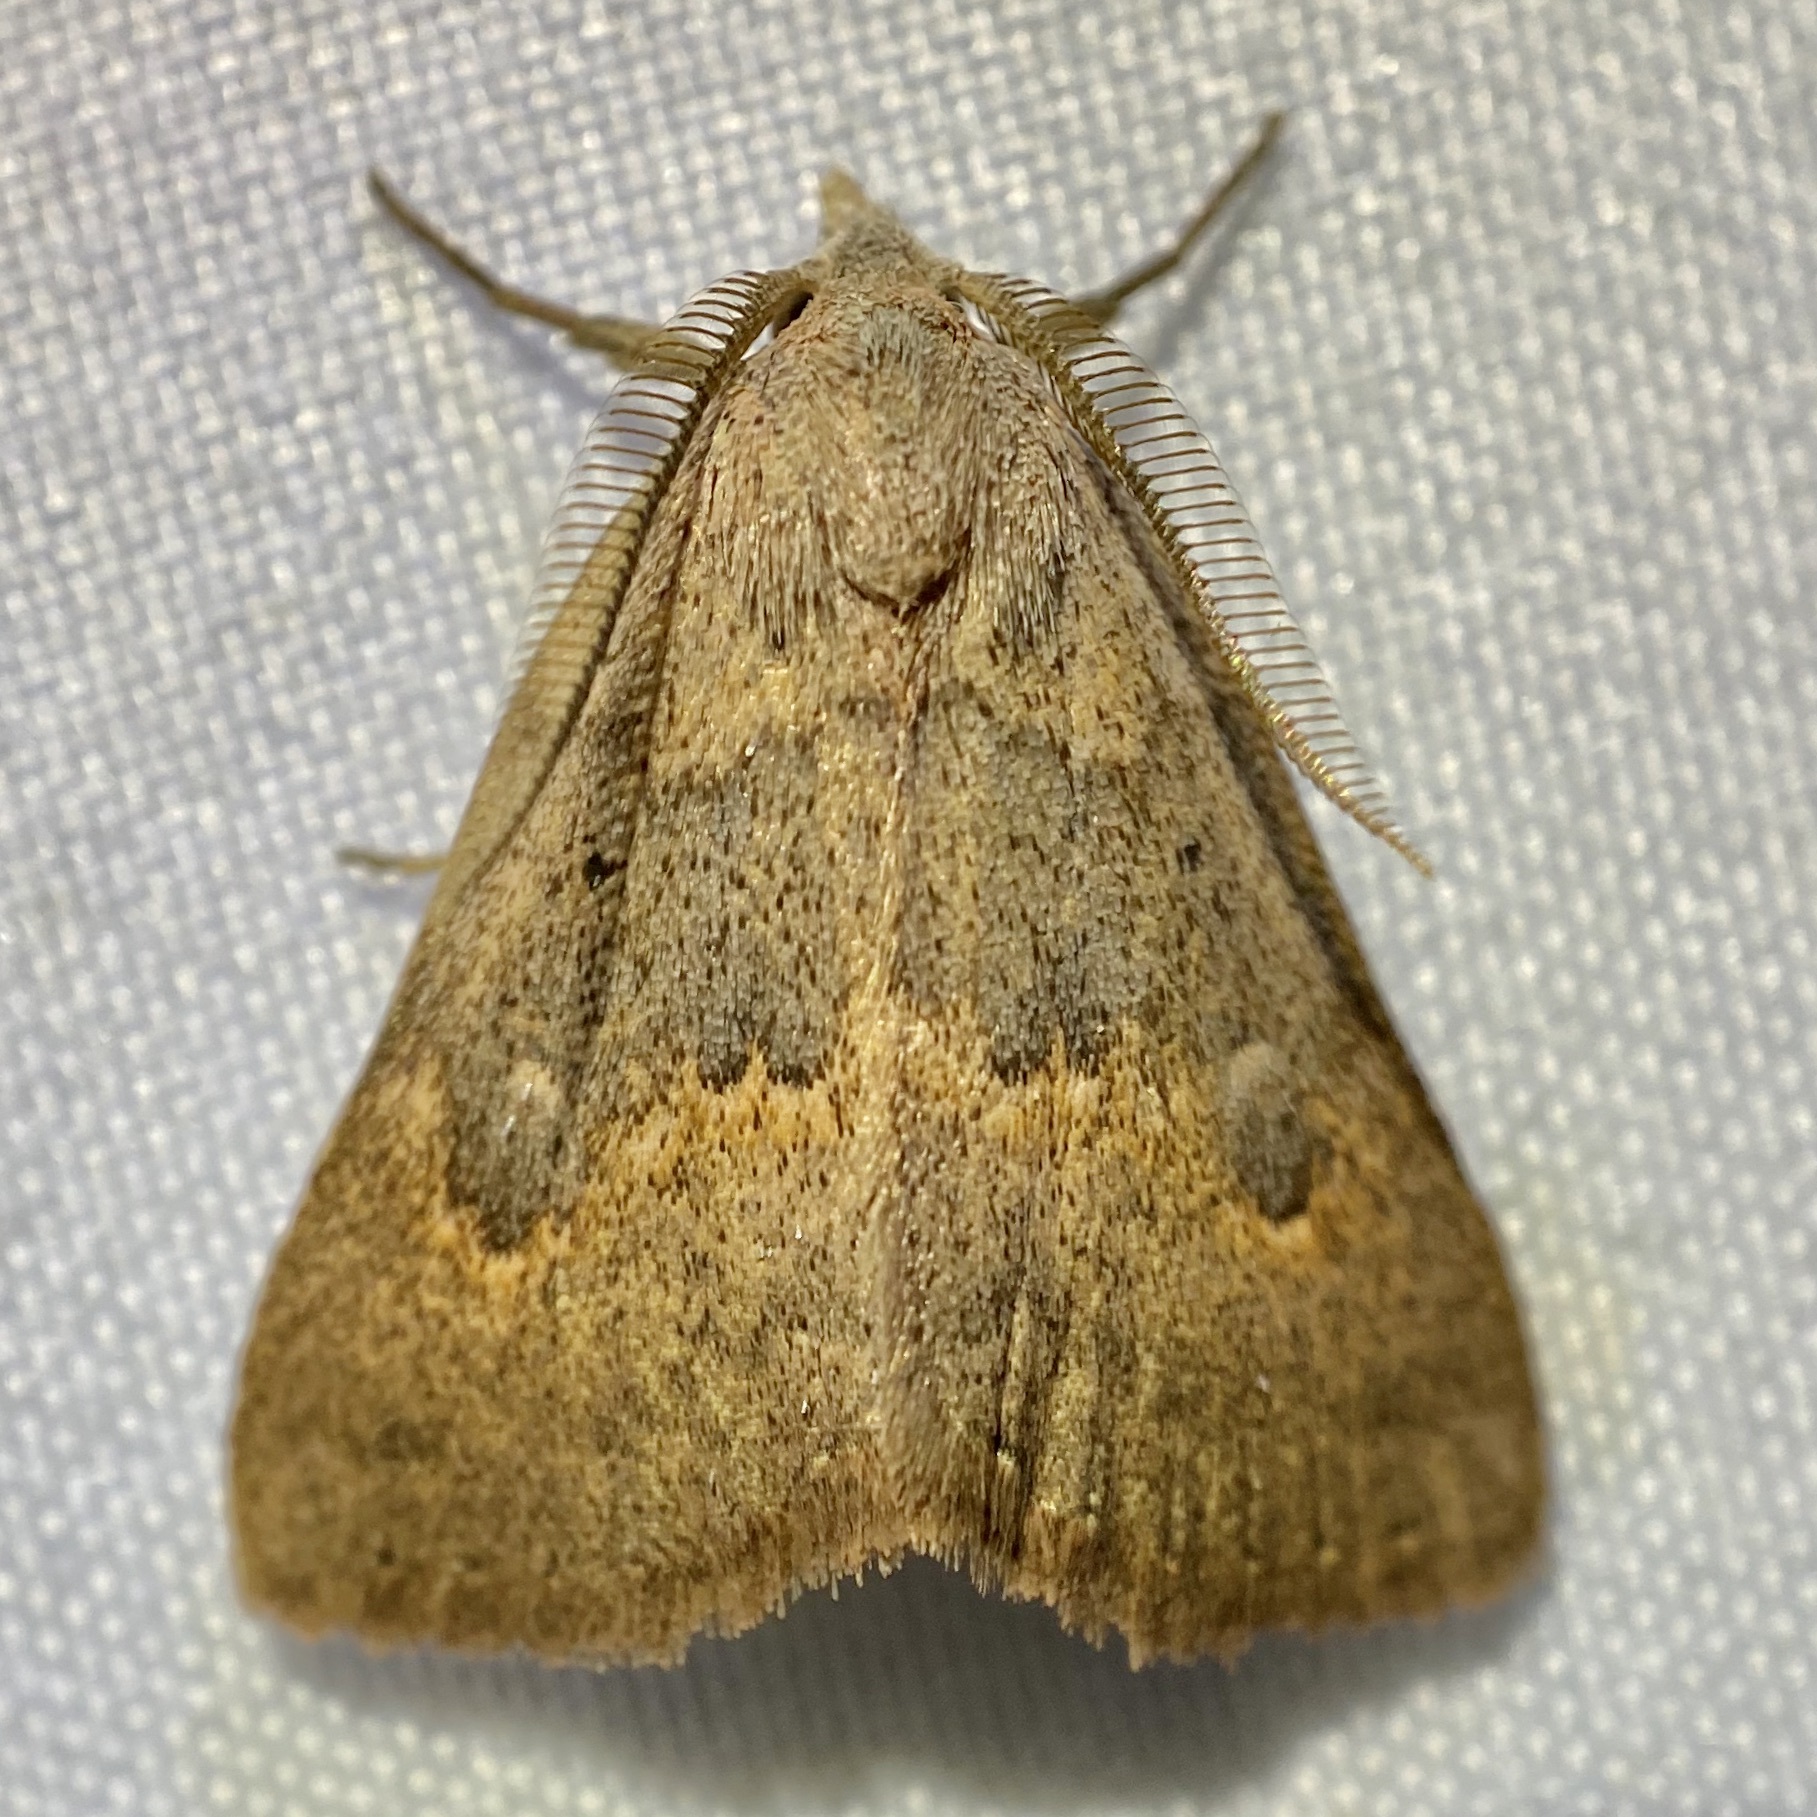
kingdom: Animalia
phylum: Arthropoda
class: Insecta
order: Lepidoptera
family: Erebidae
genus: Pseudorgyia
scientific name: Pseudorgyia russula
